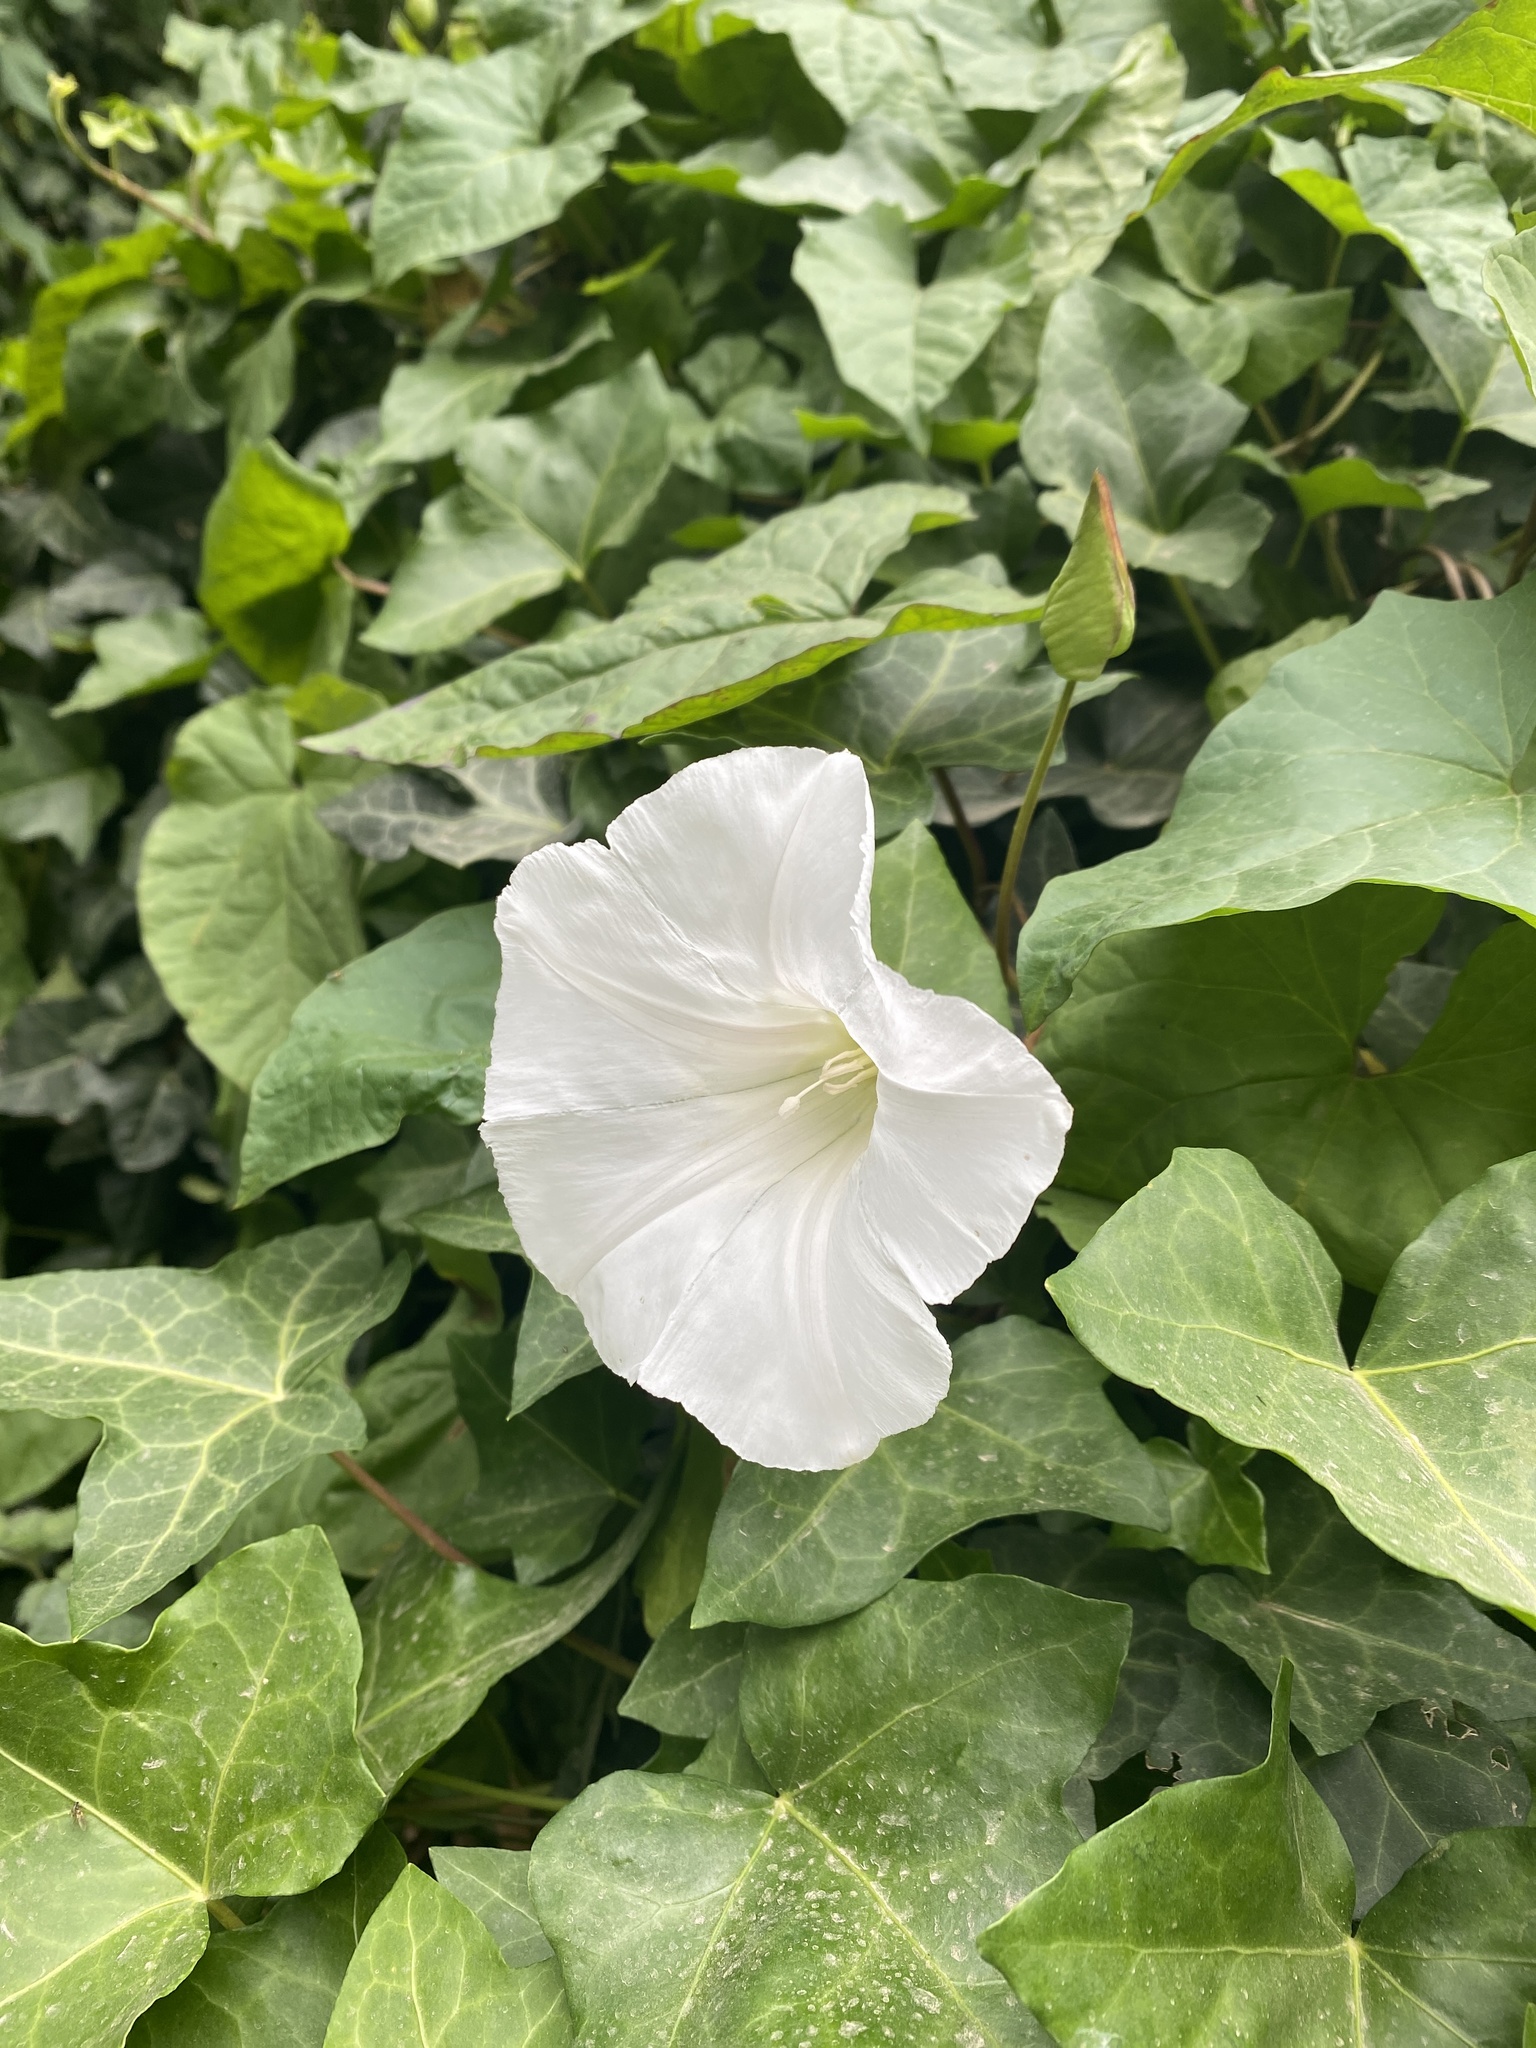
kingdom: Plantae
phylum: Tracheophyta
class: Magnoliopsida
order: Solanales
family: Convolvulaceae
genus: Calystegia
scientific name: Calystegia silvatica
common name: Large bindweed
